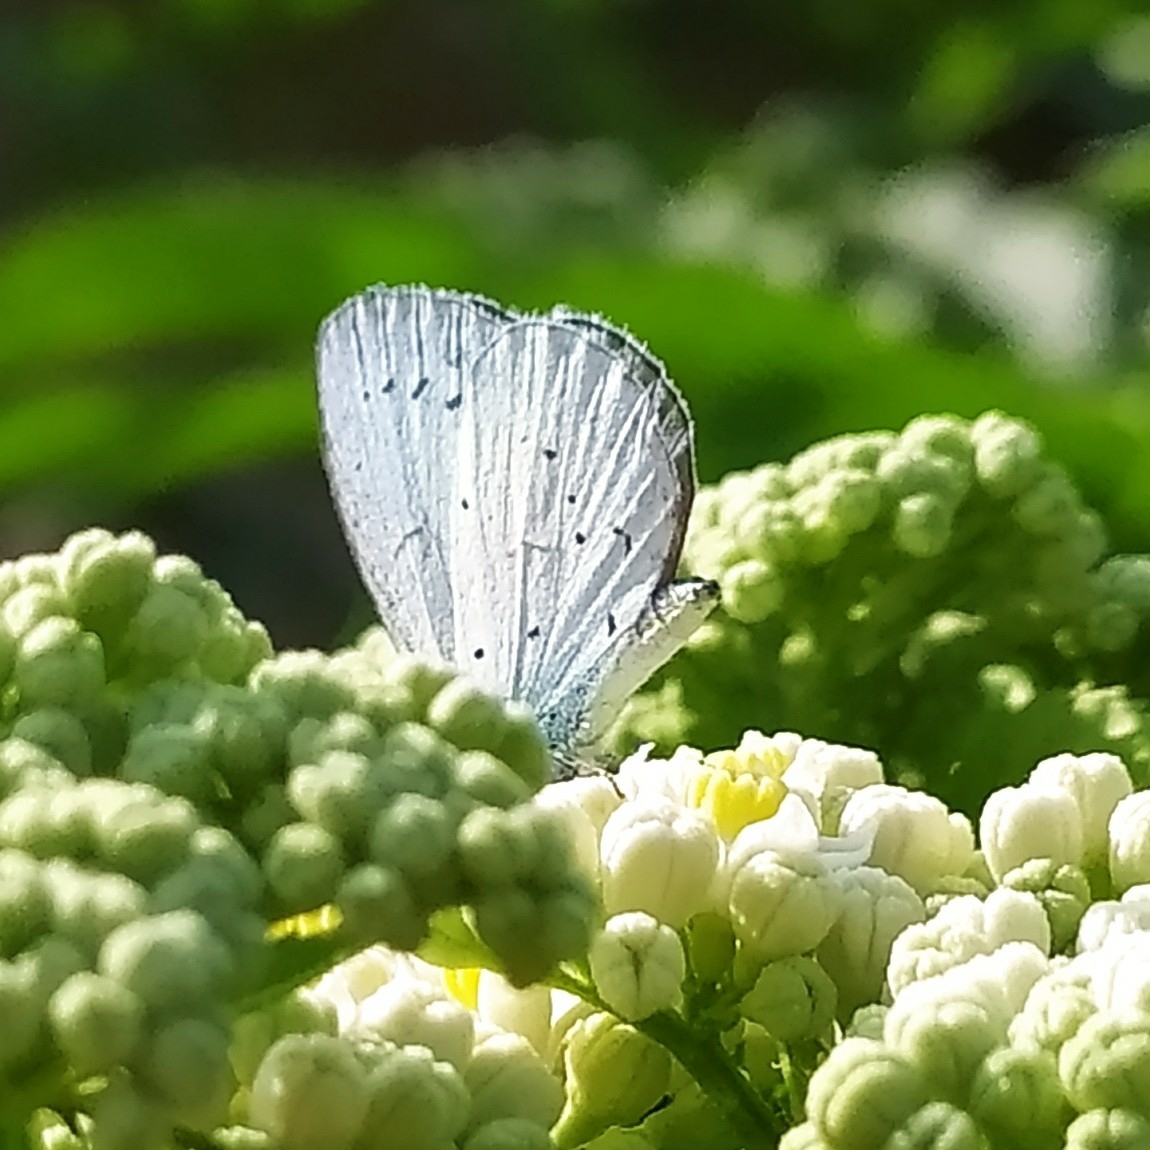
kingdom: Animalia
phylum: Arthropoda
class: Insecta
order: Lepidoptera
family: Lycaenidae
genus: Celastrina
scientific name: Celastrina argiolus
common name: Holly blue
